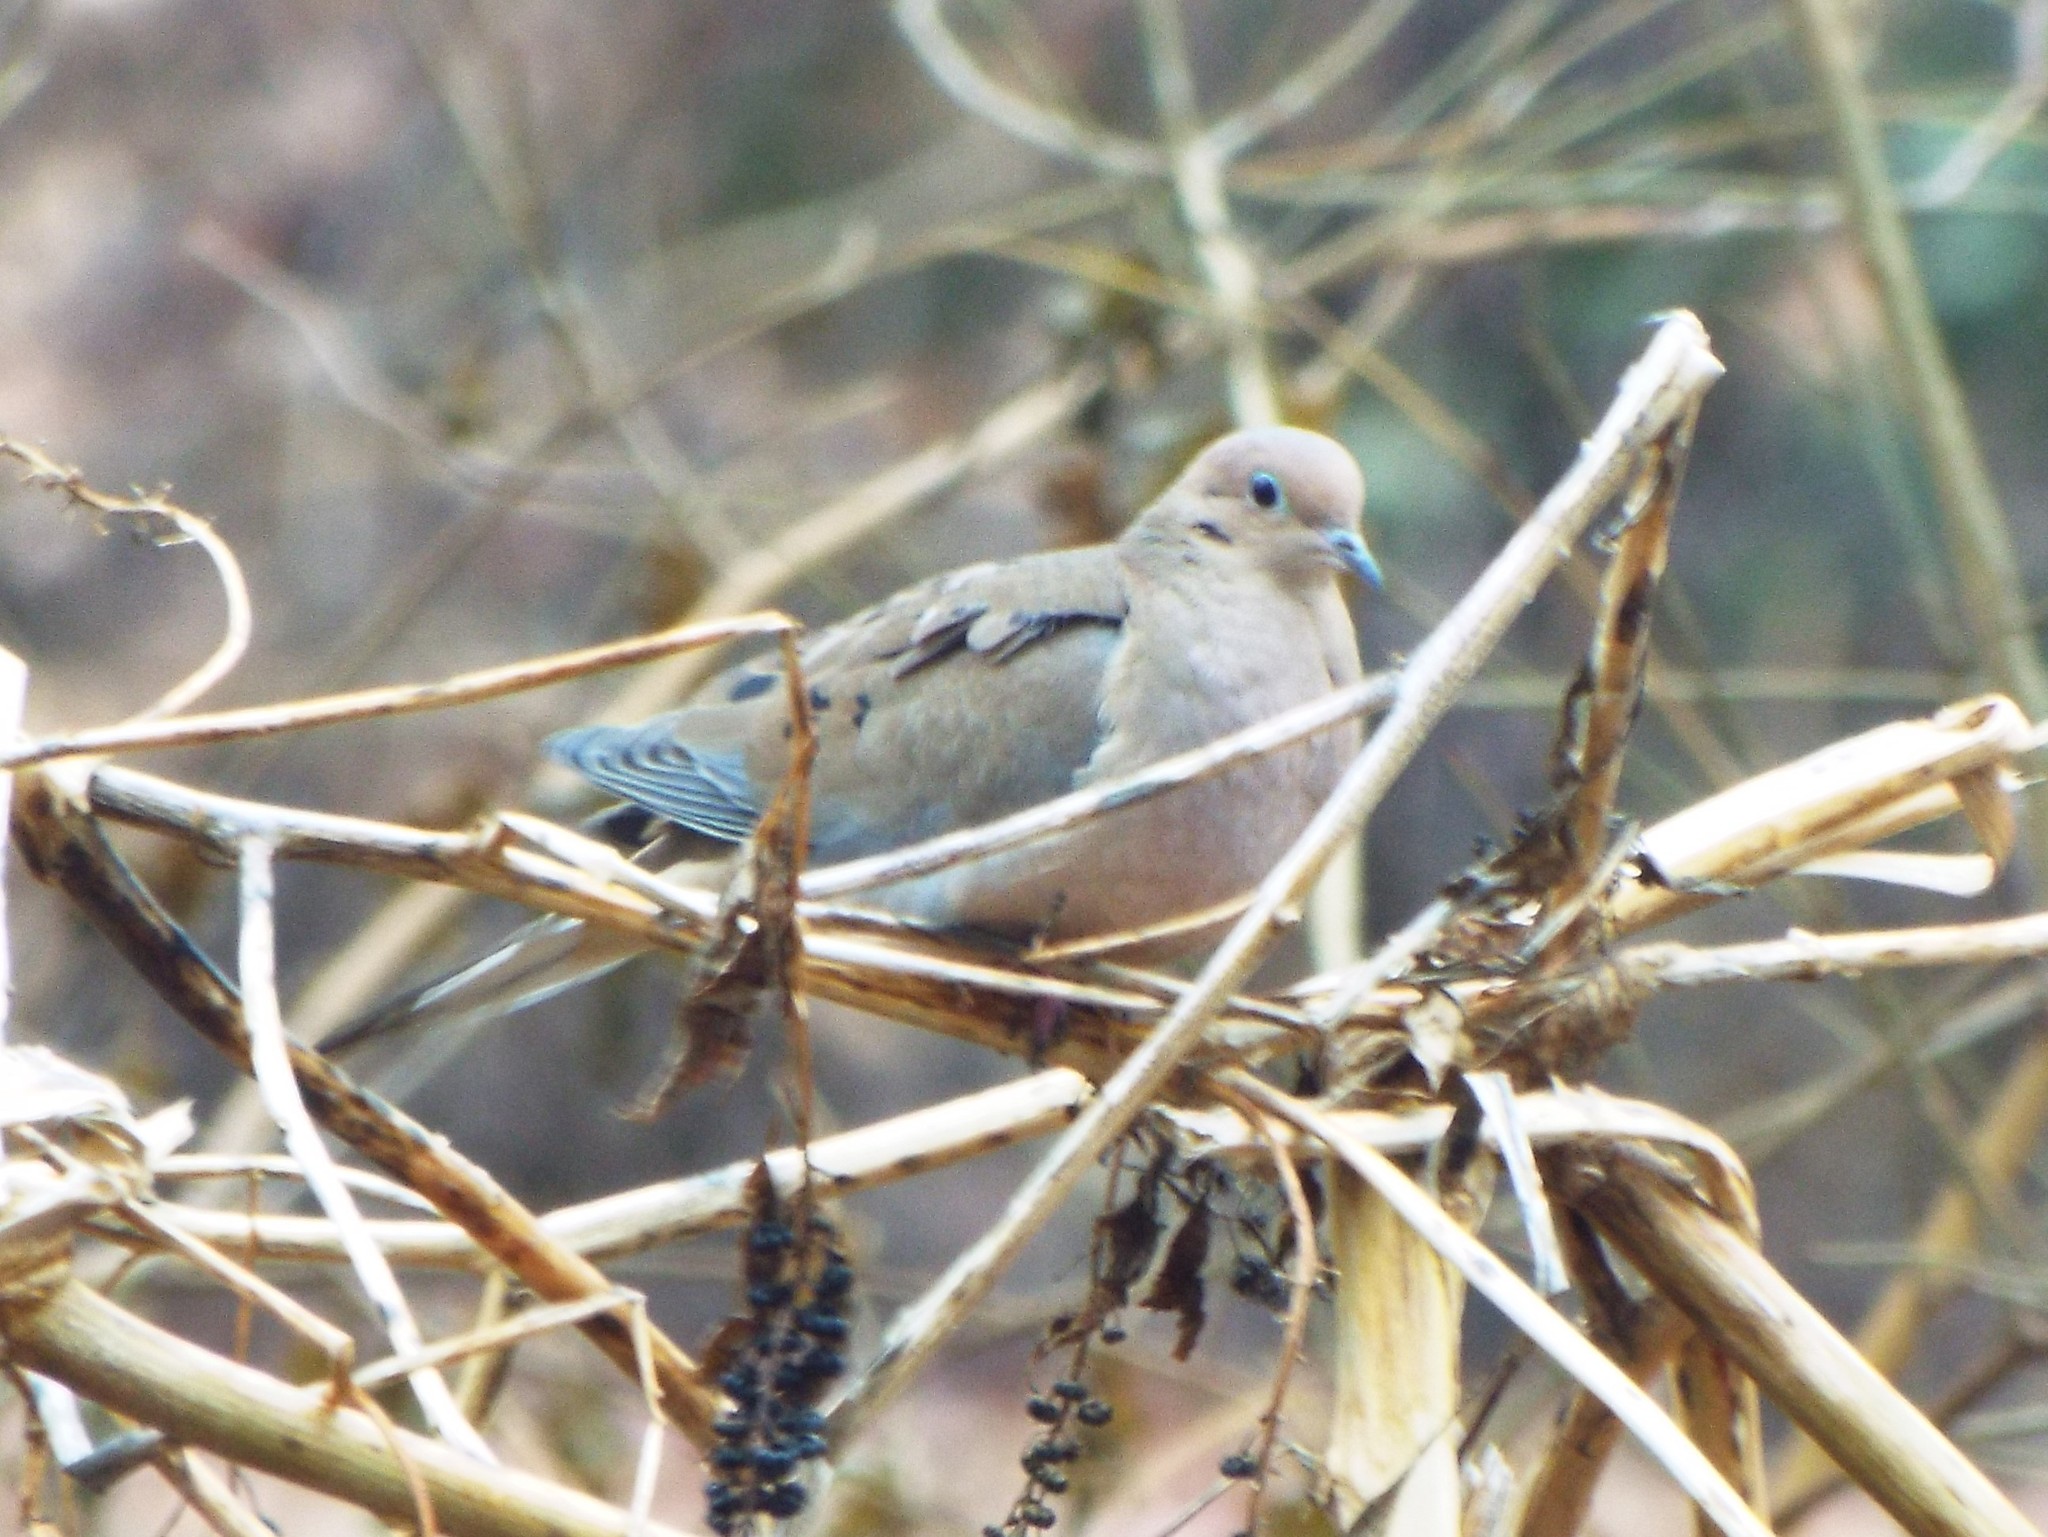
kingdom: Animalia
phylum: Chordata
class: Aves
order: Columbiformes
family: Columbidae
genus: Zenaida
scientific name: Zenaida macroura
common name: Mourning dove
